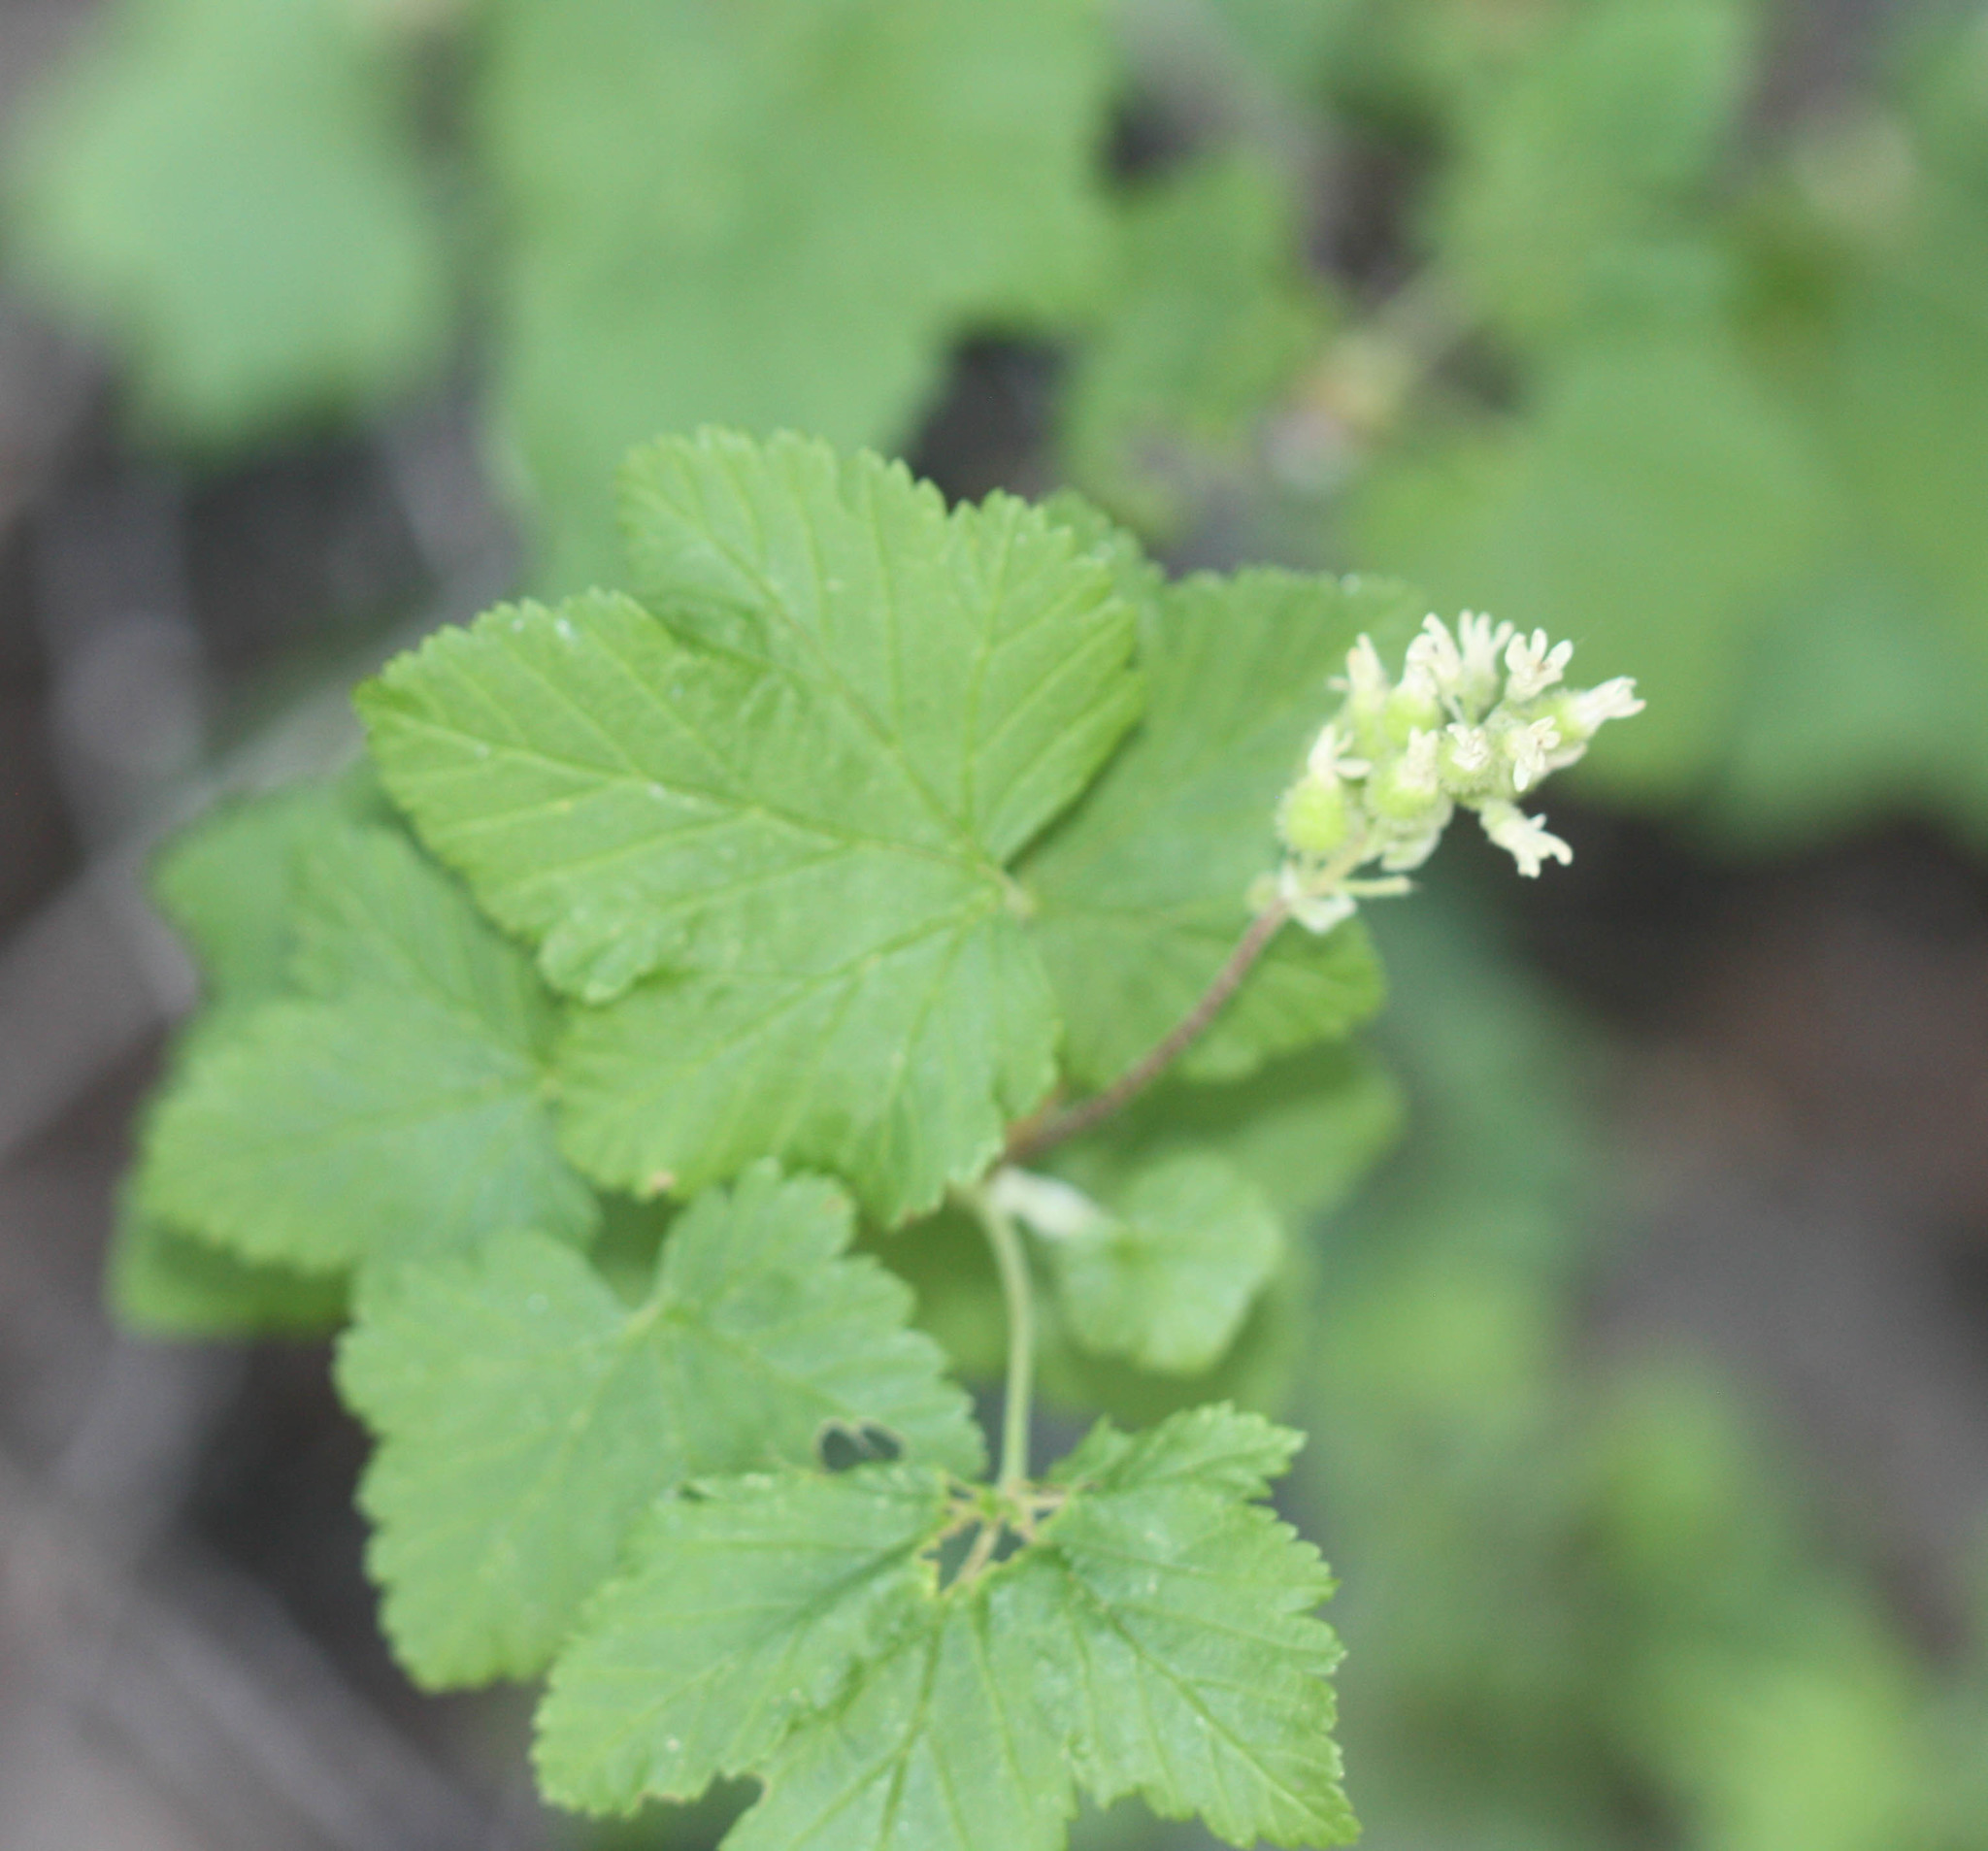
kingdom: Plantae
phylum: Tracheophyta
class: Magnoliopsida
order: Saxifragales
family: Grossulariaceae
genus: Ribes
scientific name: Ribes wolfii
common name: Rothrock currant
